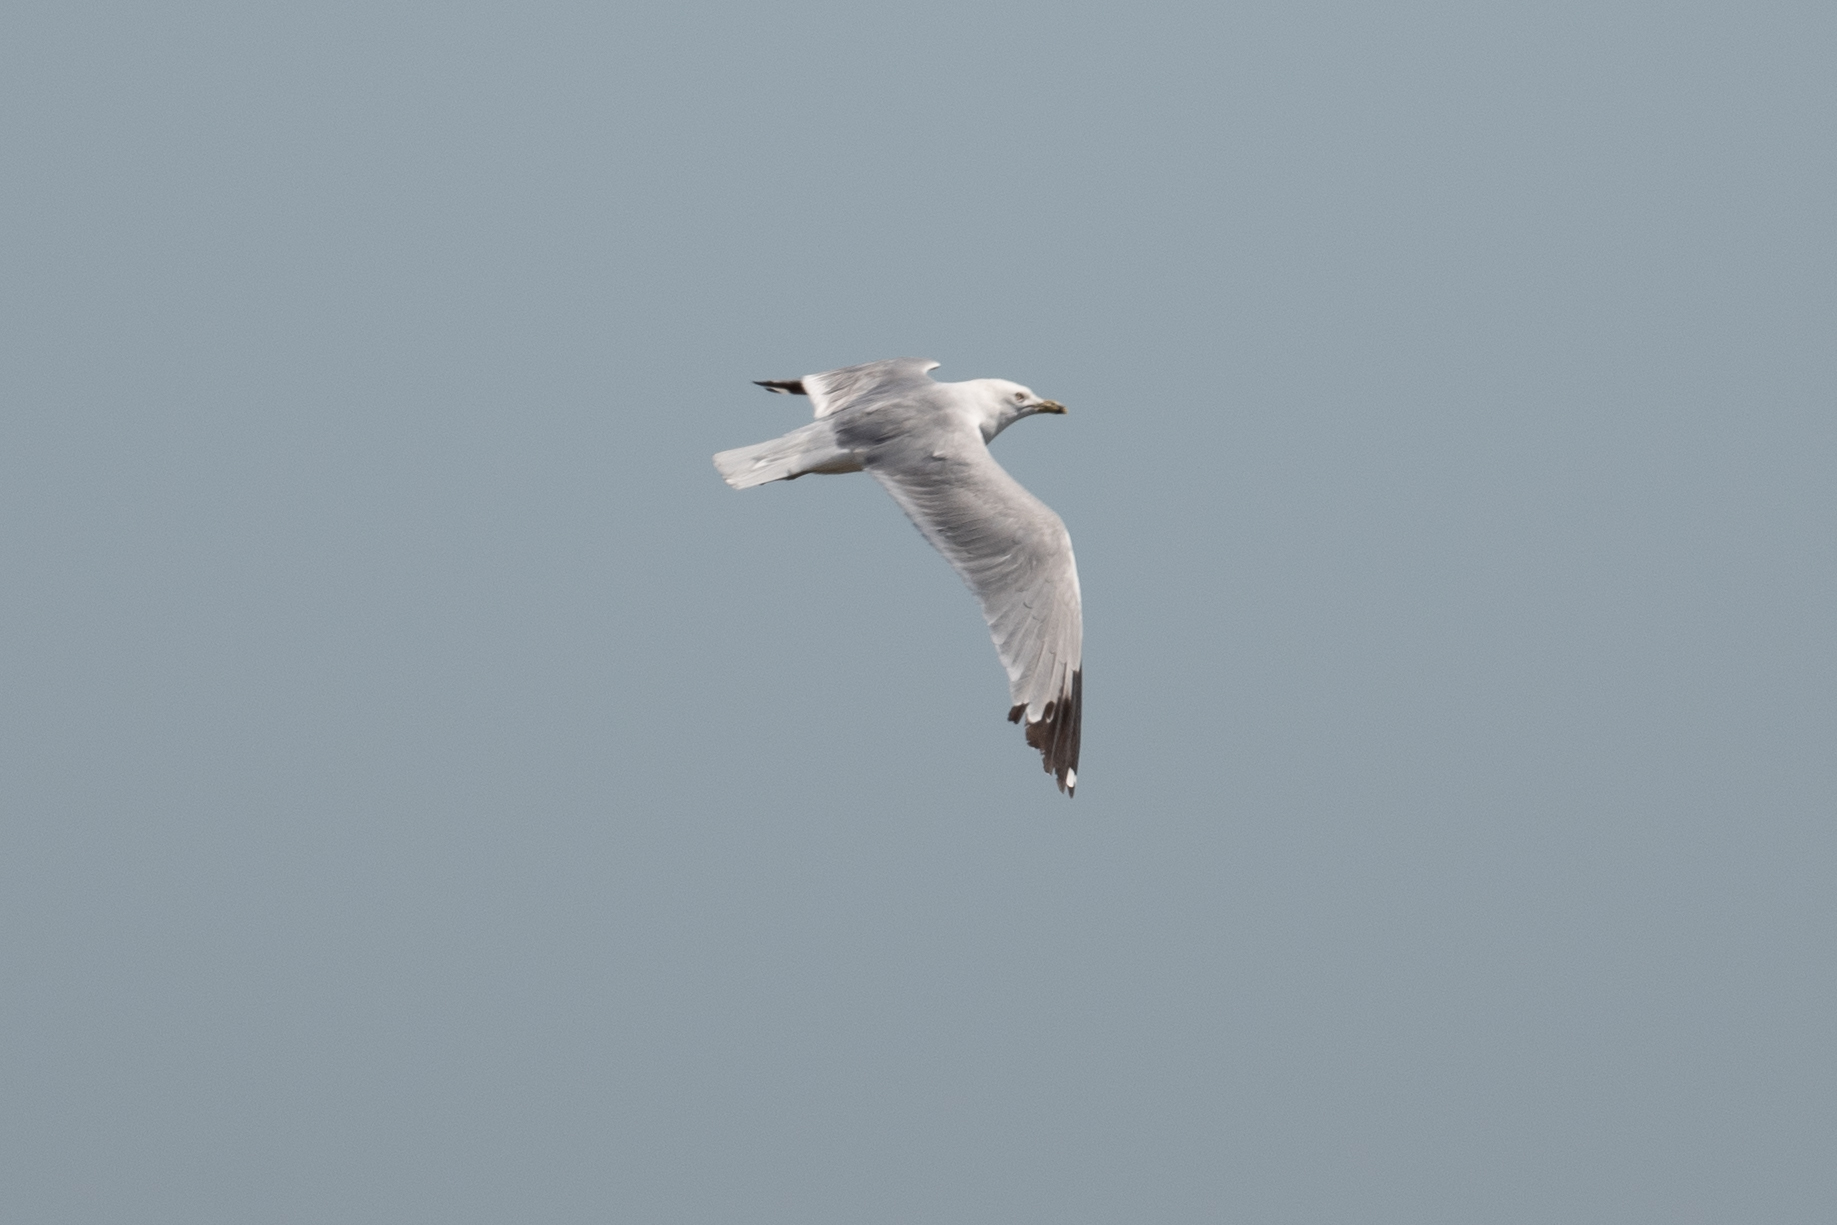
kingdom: Animalia
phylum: Chordata
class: Aves
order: Charadriiformes
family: Laridae
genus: Larus
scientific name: Larus delawarensis
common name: Ring-billed gull
